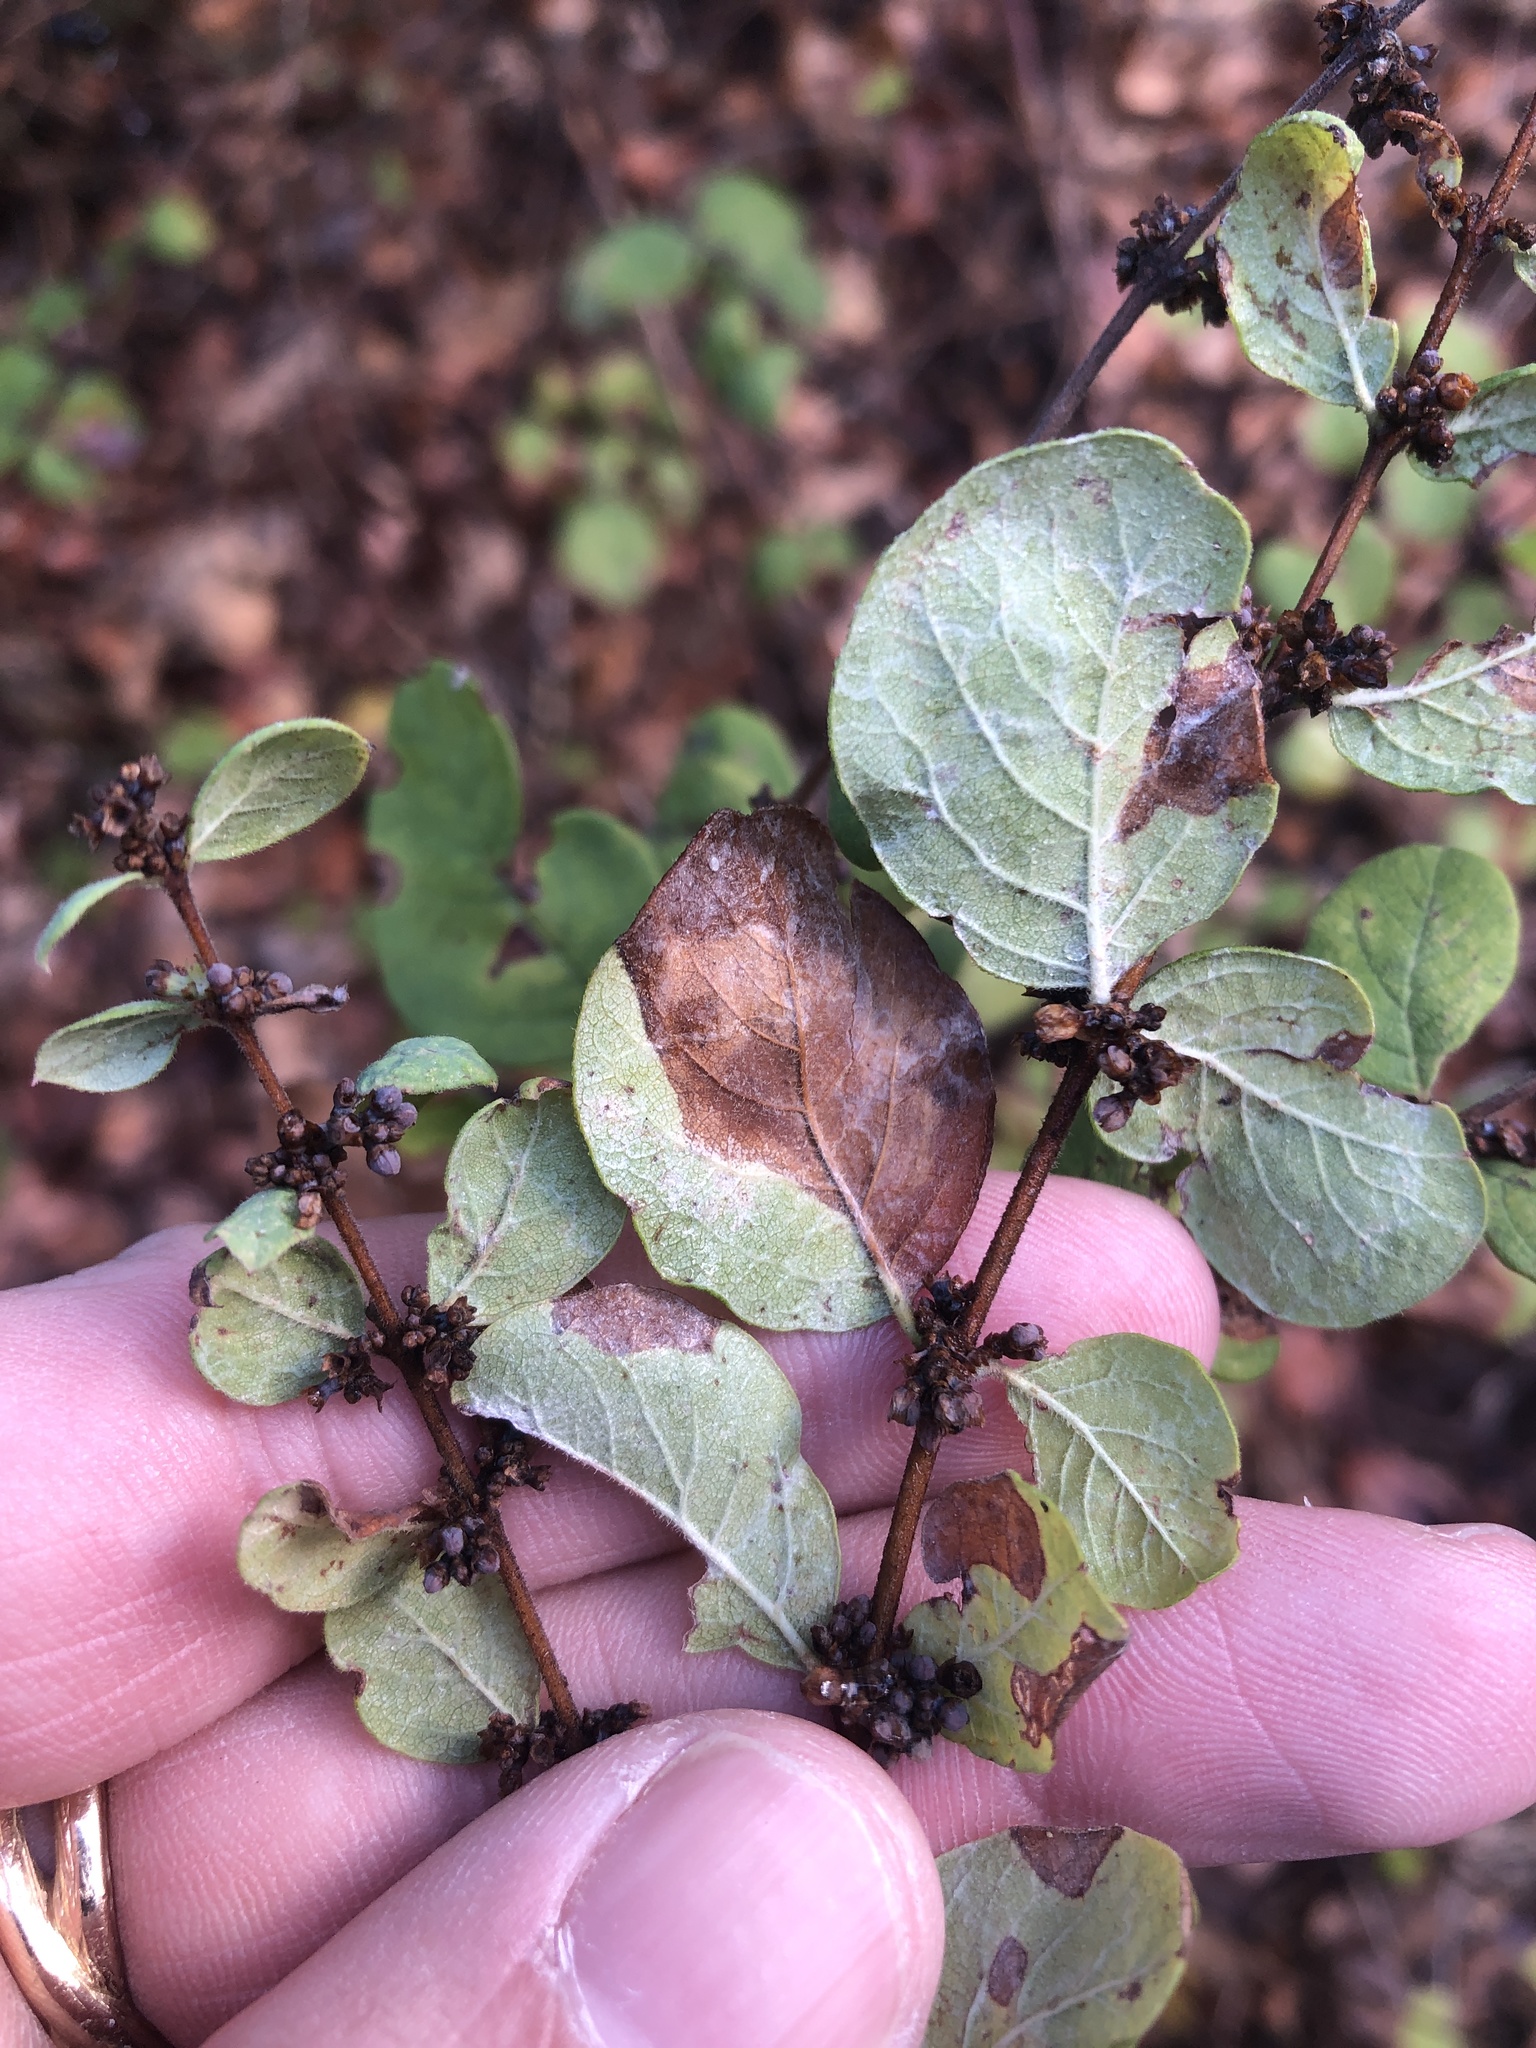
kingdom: Plantae
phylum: Tracheophyta
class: Magnoliopsida
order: Dipsacales
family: Caprifoliaceae
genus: Symphoricarpos
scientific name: Symphoricarpos orbiculatus
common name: Coralberry
